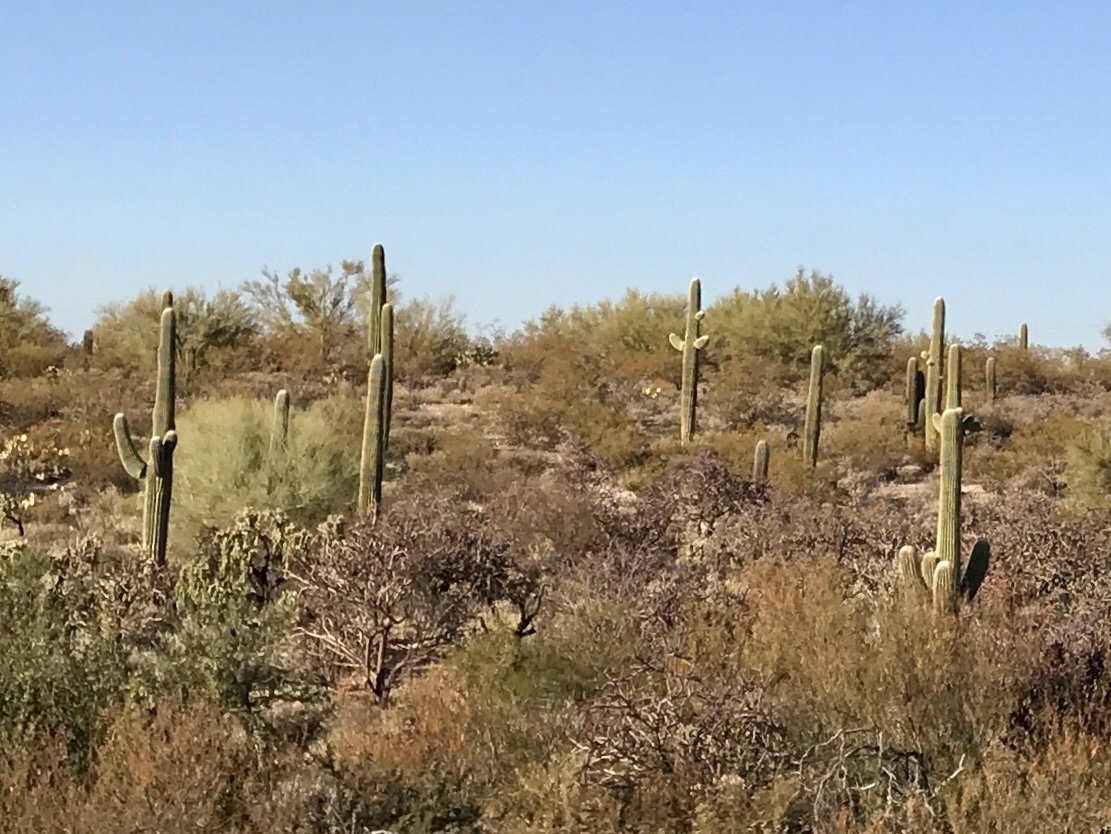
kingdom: Plantae
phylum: Tracheophyta
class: Magnoliopsida
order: Caryophyllales
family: Cactaceae
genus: Carnegiea
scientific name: Carnegiea gigantea
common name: Saguaro
